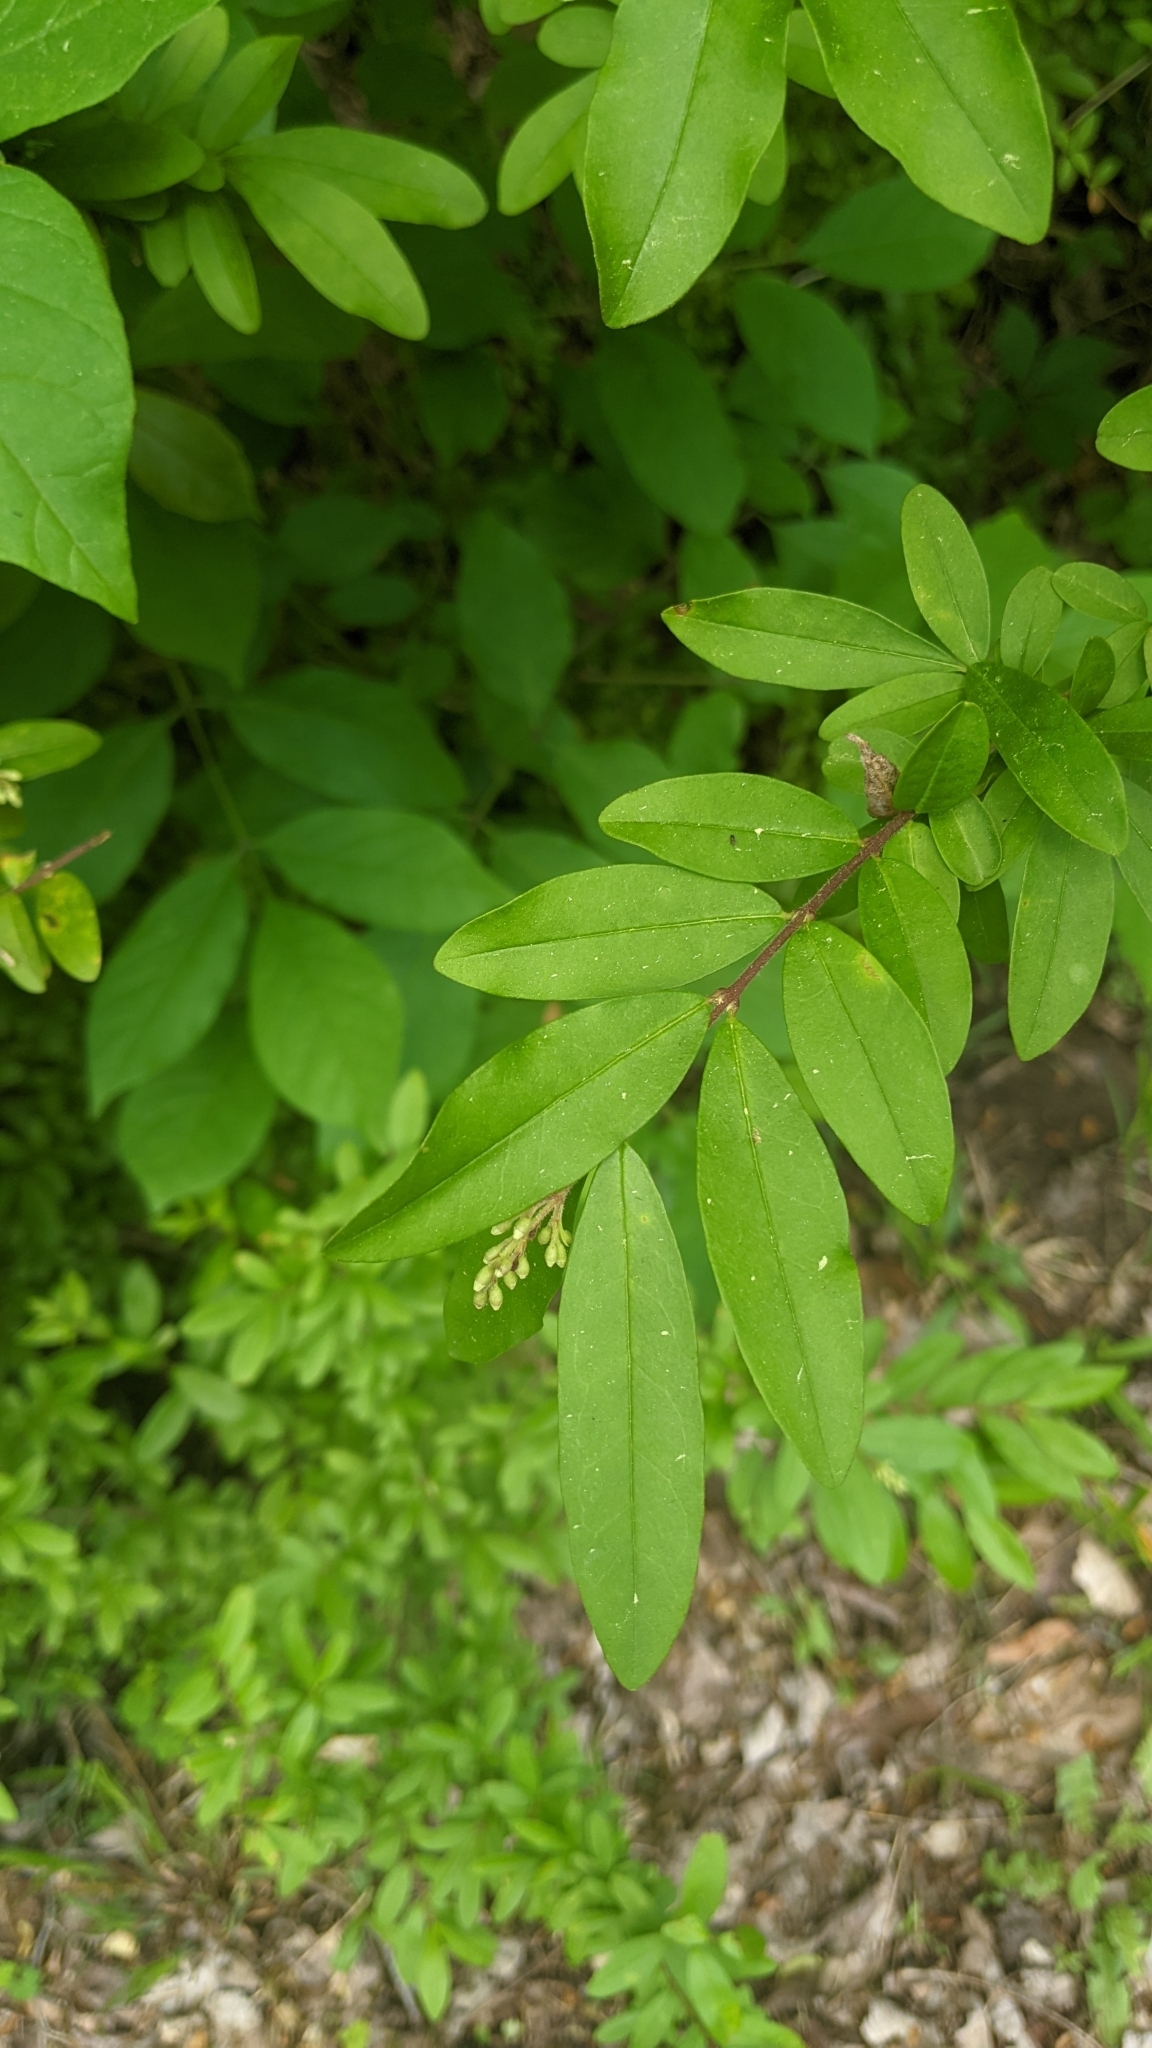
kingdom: Plantae
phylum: Tracheophyta
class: Magnoliopsida
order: Lamiales
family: Oleaceae
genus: Ligustrum
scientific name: Ligustrum obtusifolium
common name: Border privet
